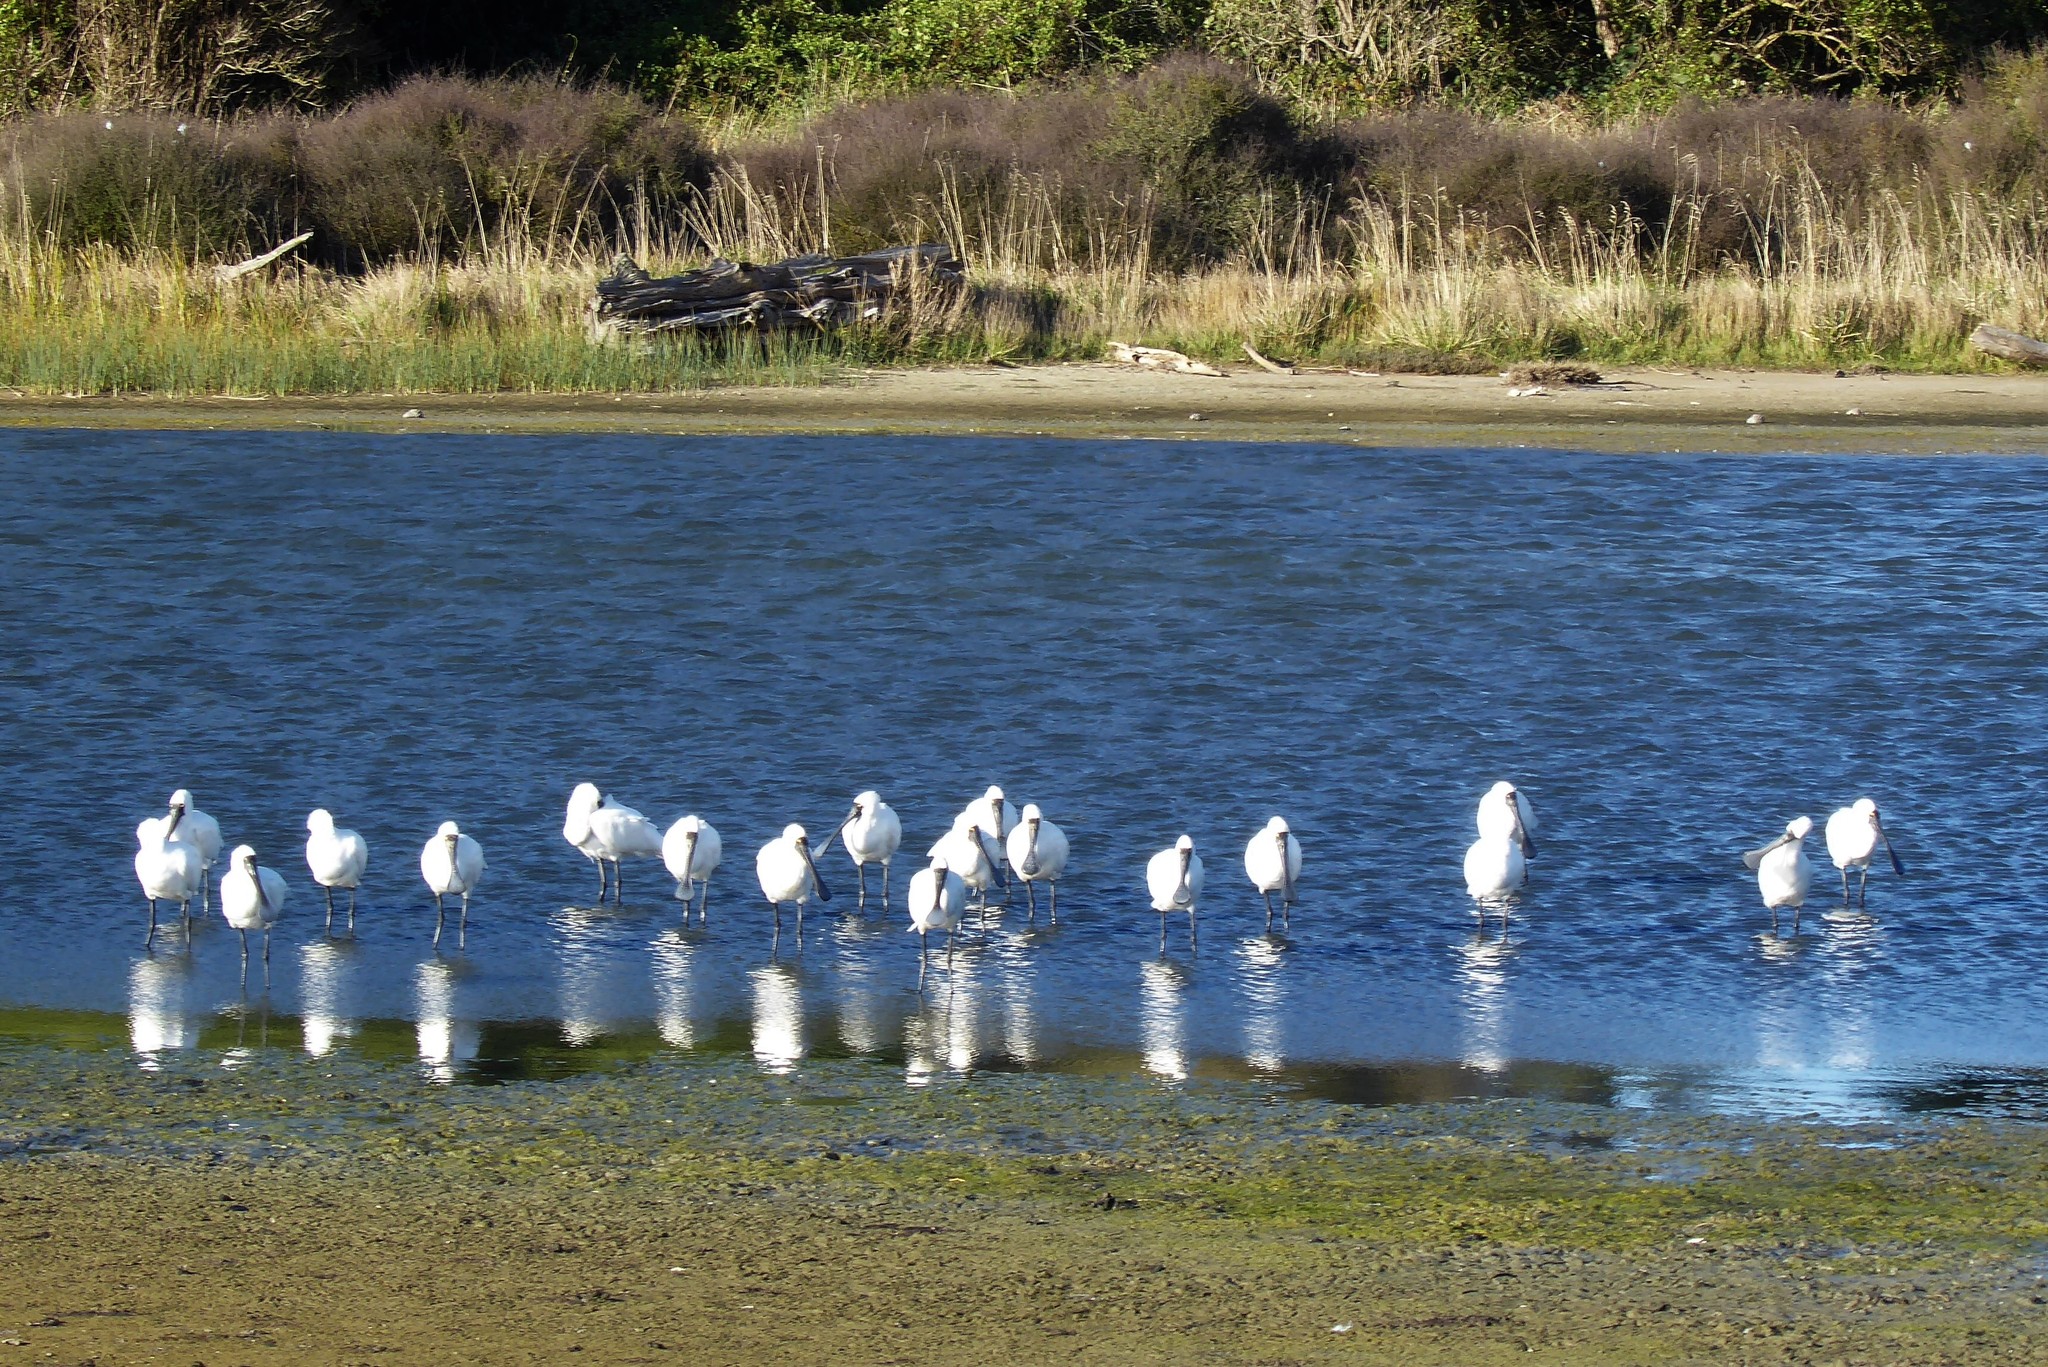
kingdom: Animalia
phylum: Chordata
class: Aves
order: Pelecaniformes
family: Threskiornithidae
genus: Platalea
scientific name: Platalea regia
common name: Royal spoonbill
